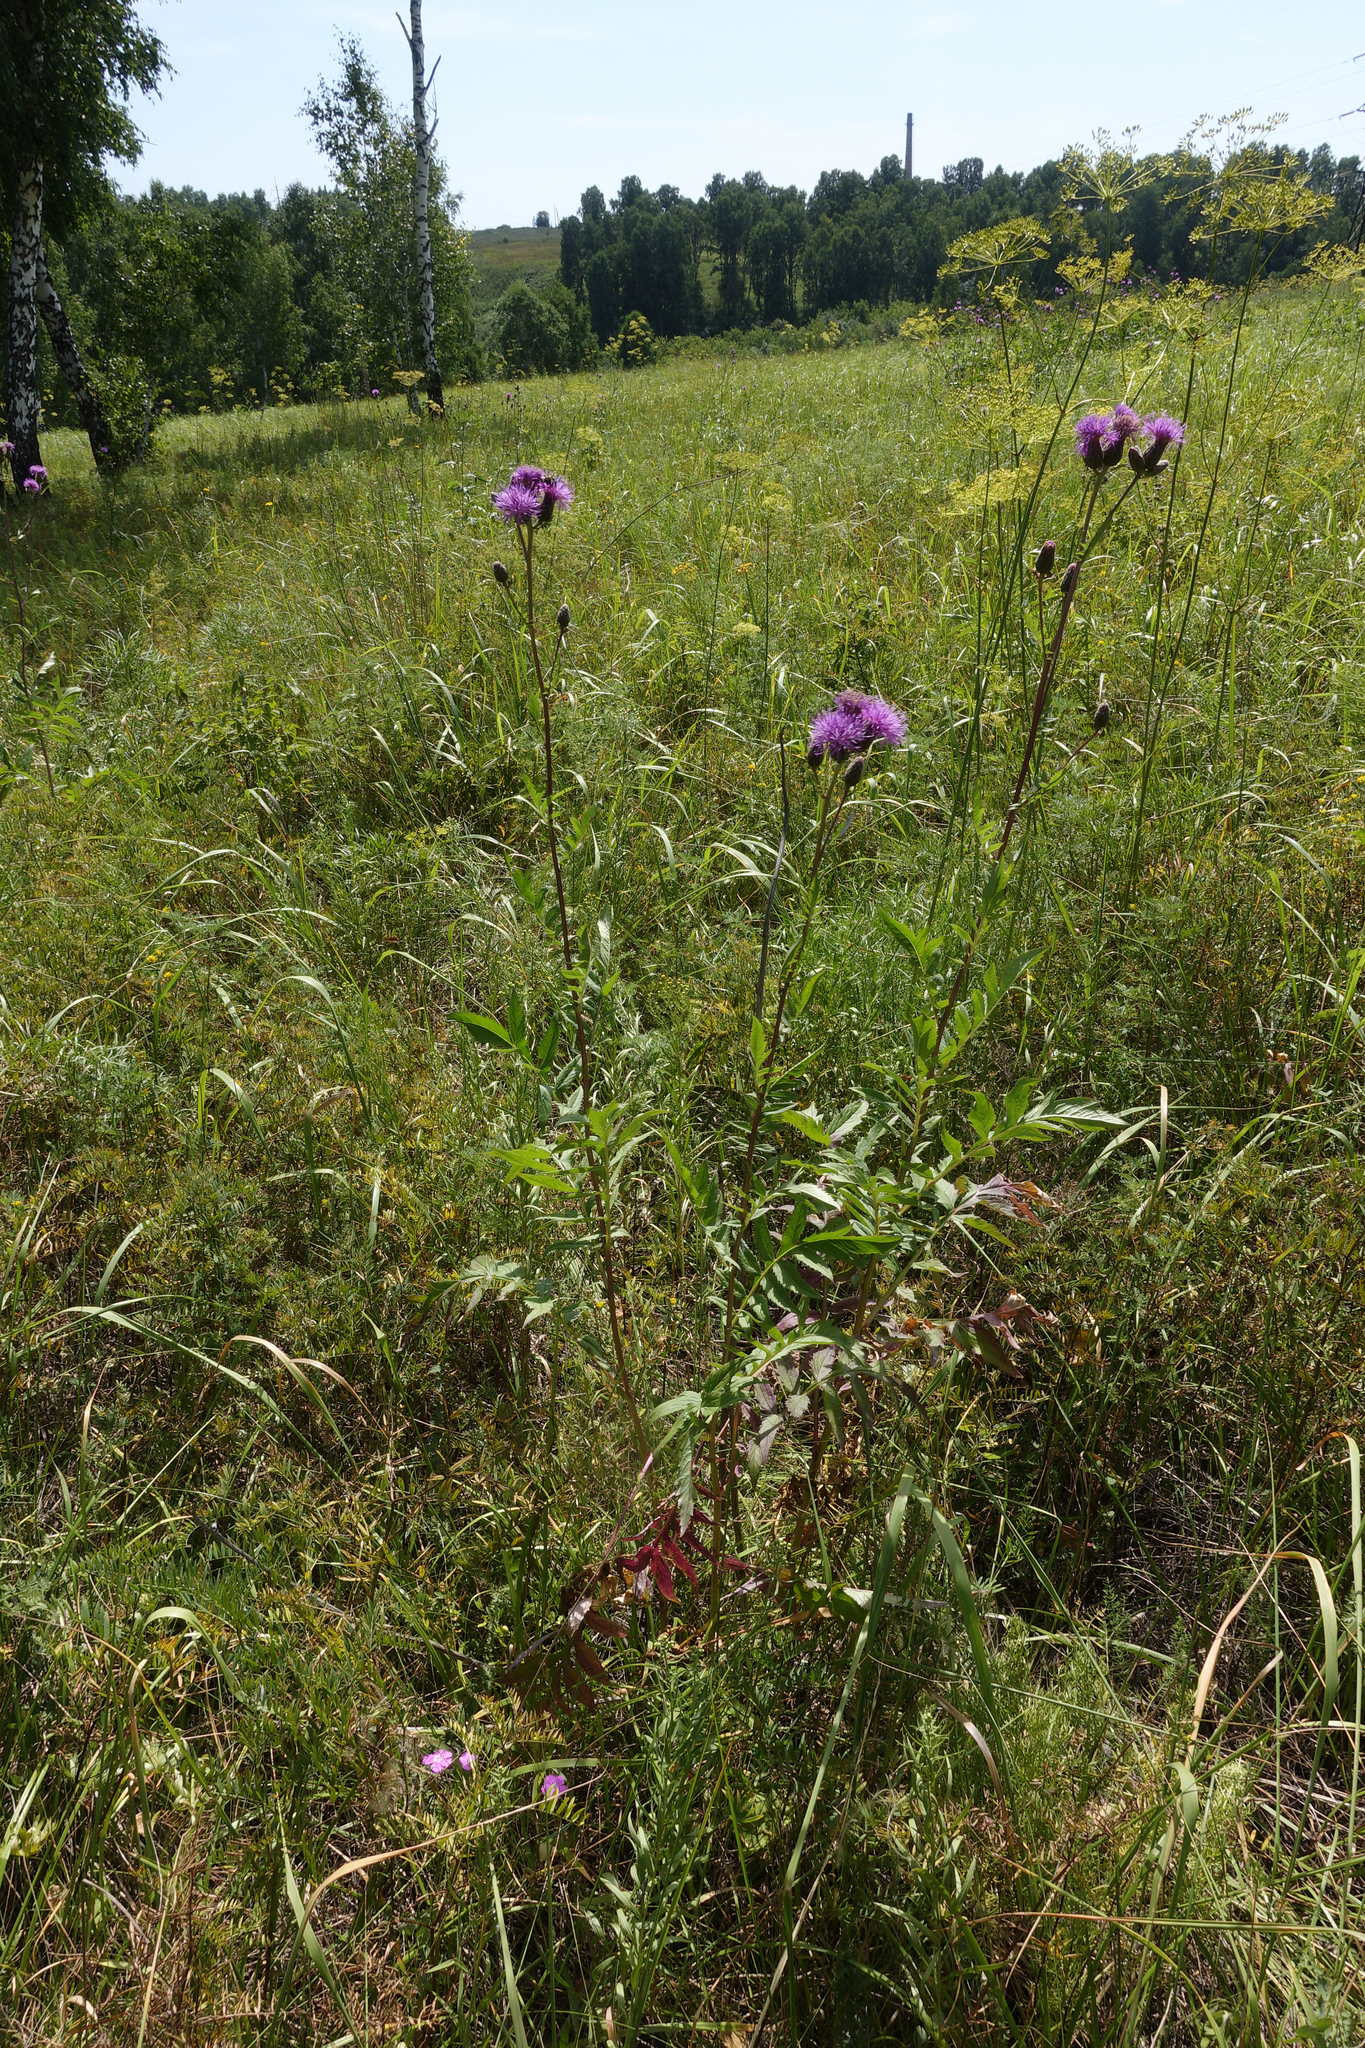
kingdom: Plantae
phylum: Tracheophyta
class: Magnoliopsida
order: Asterales
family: Asteraceae
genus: Serratula
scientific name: Serratula coronata
